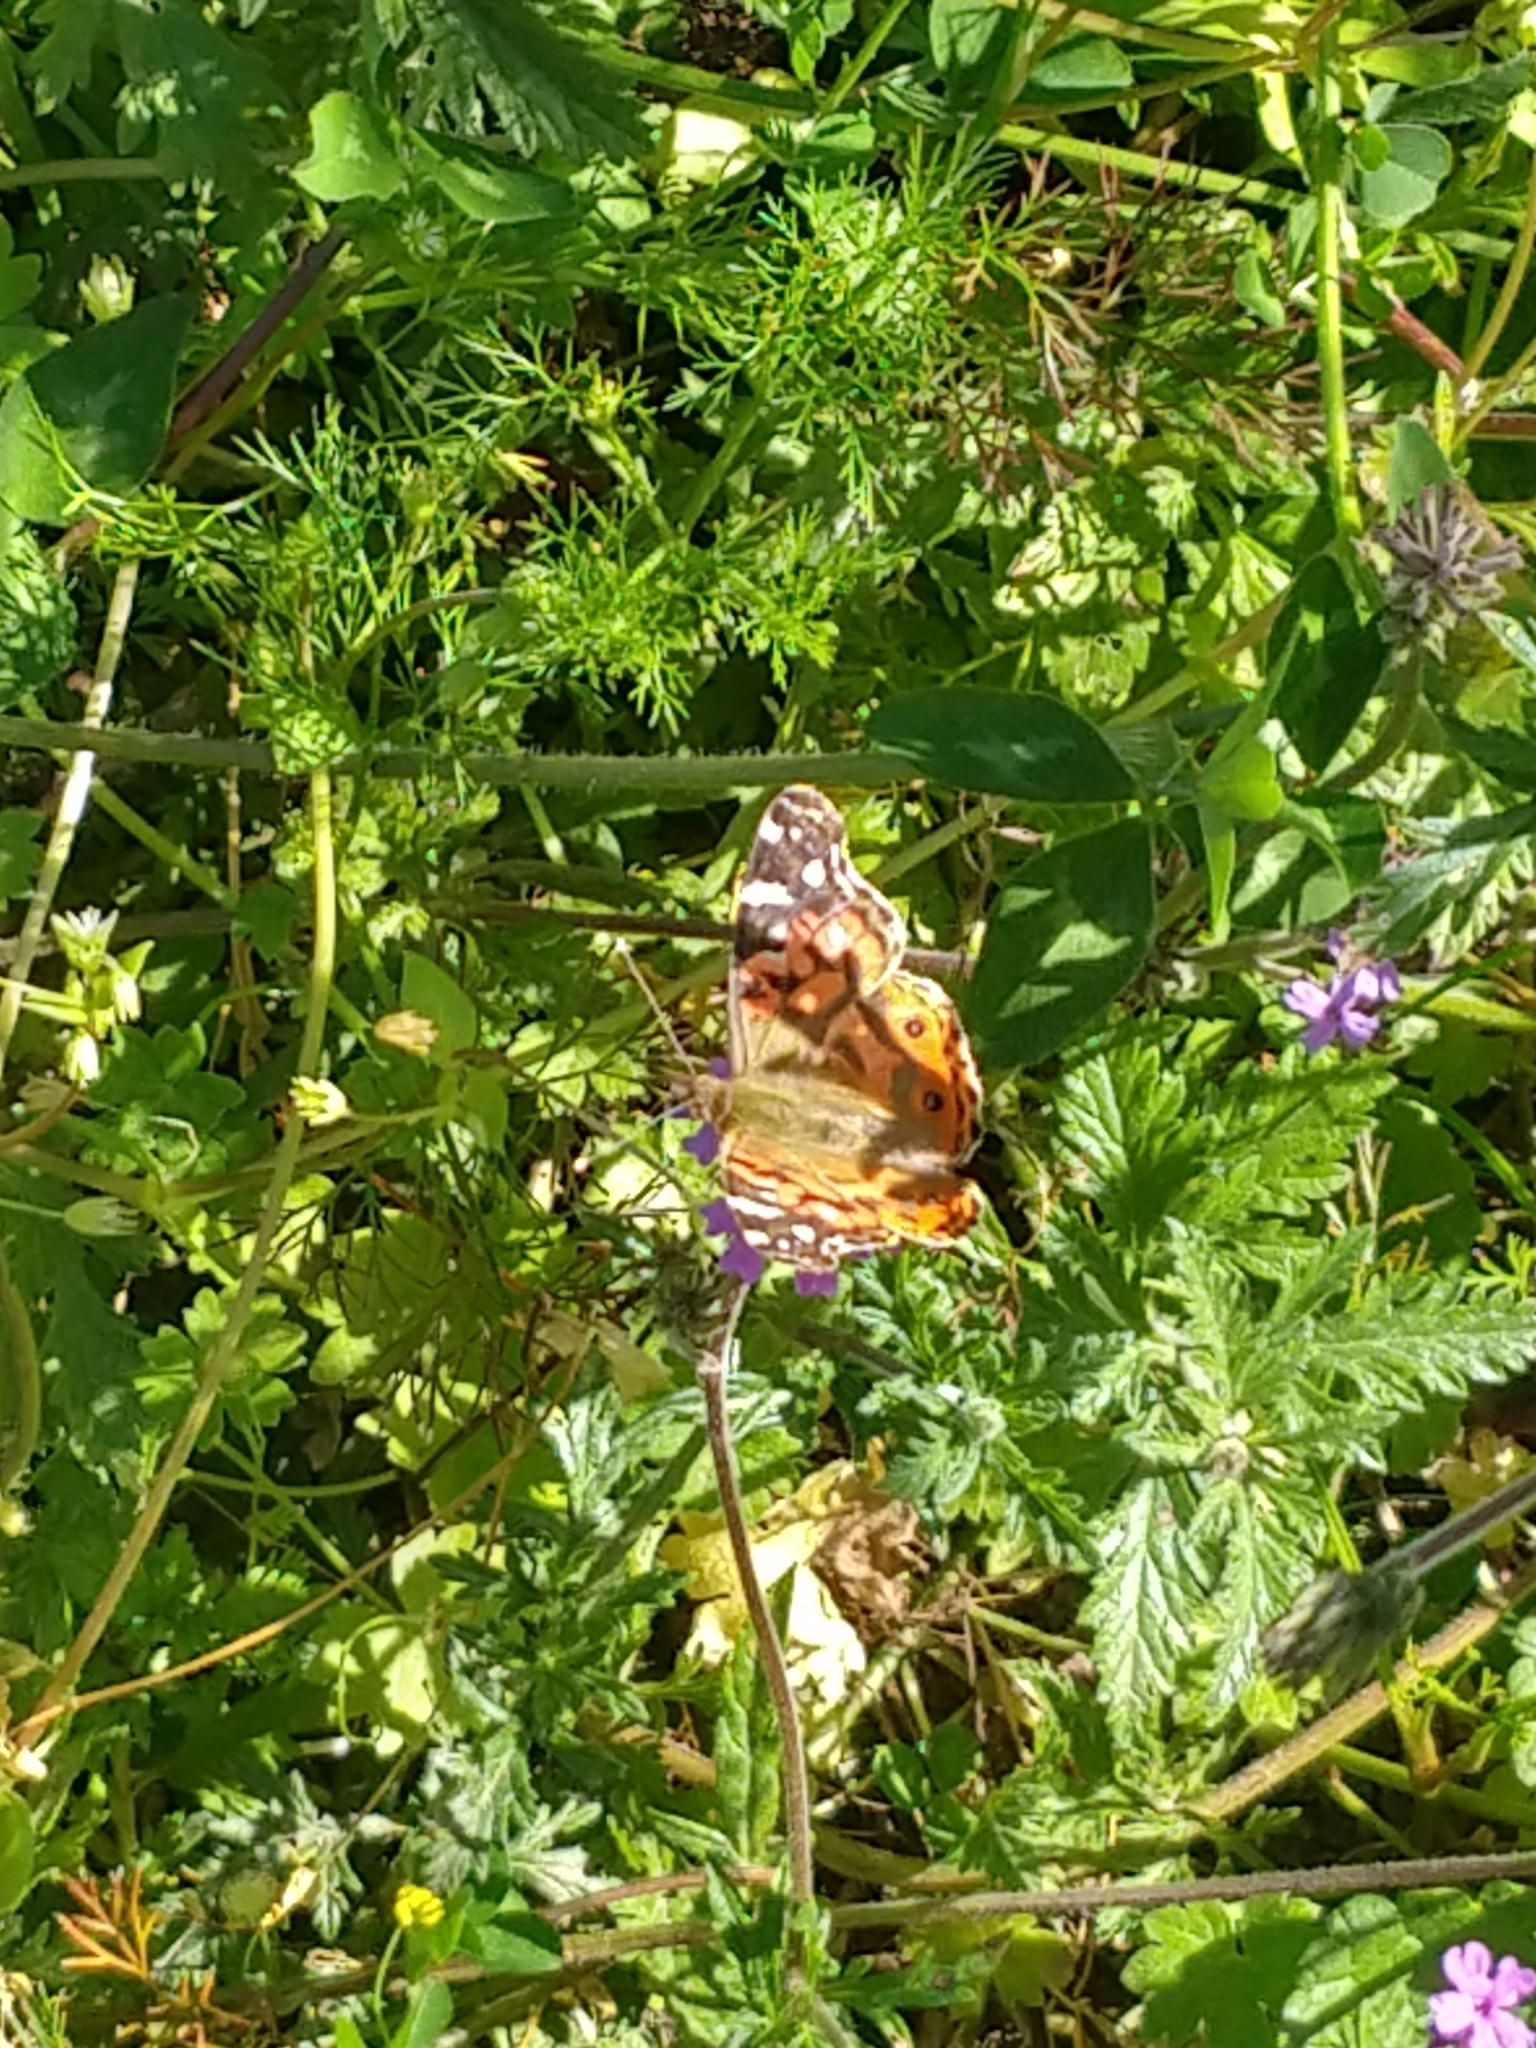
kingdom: Animalia
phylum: Arthropoda
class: Insecta
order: Lepidoptera
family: Nymphalidae
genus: Vanessa
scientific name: Vanessa braziliensis
